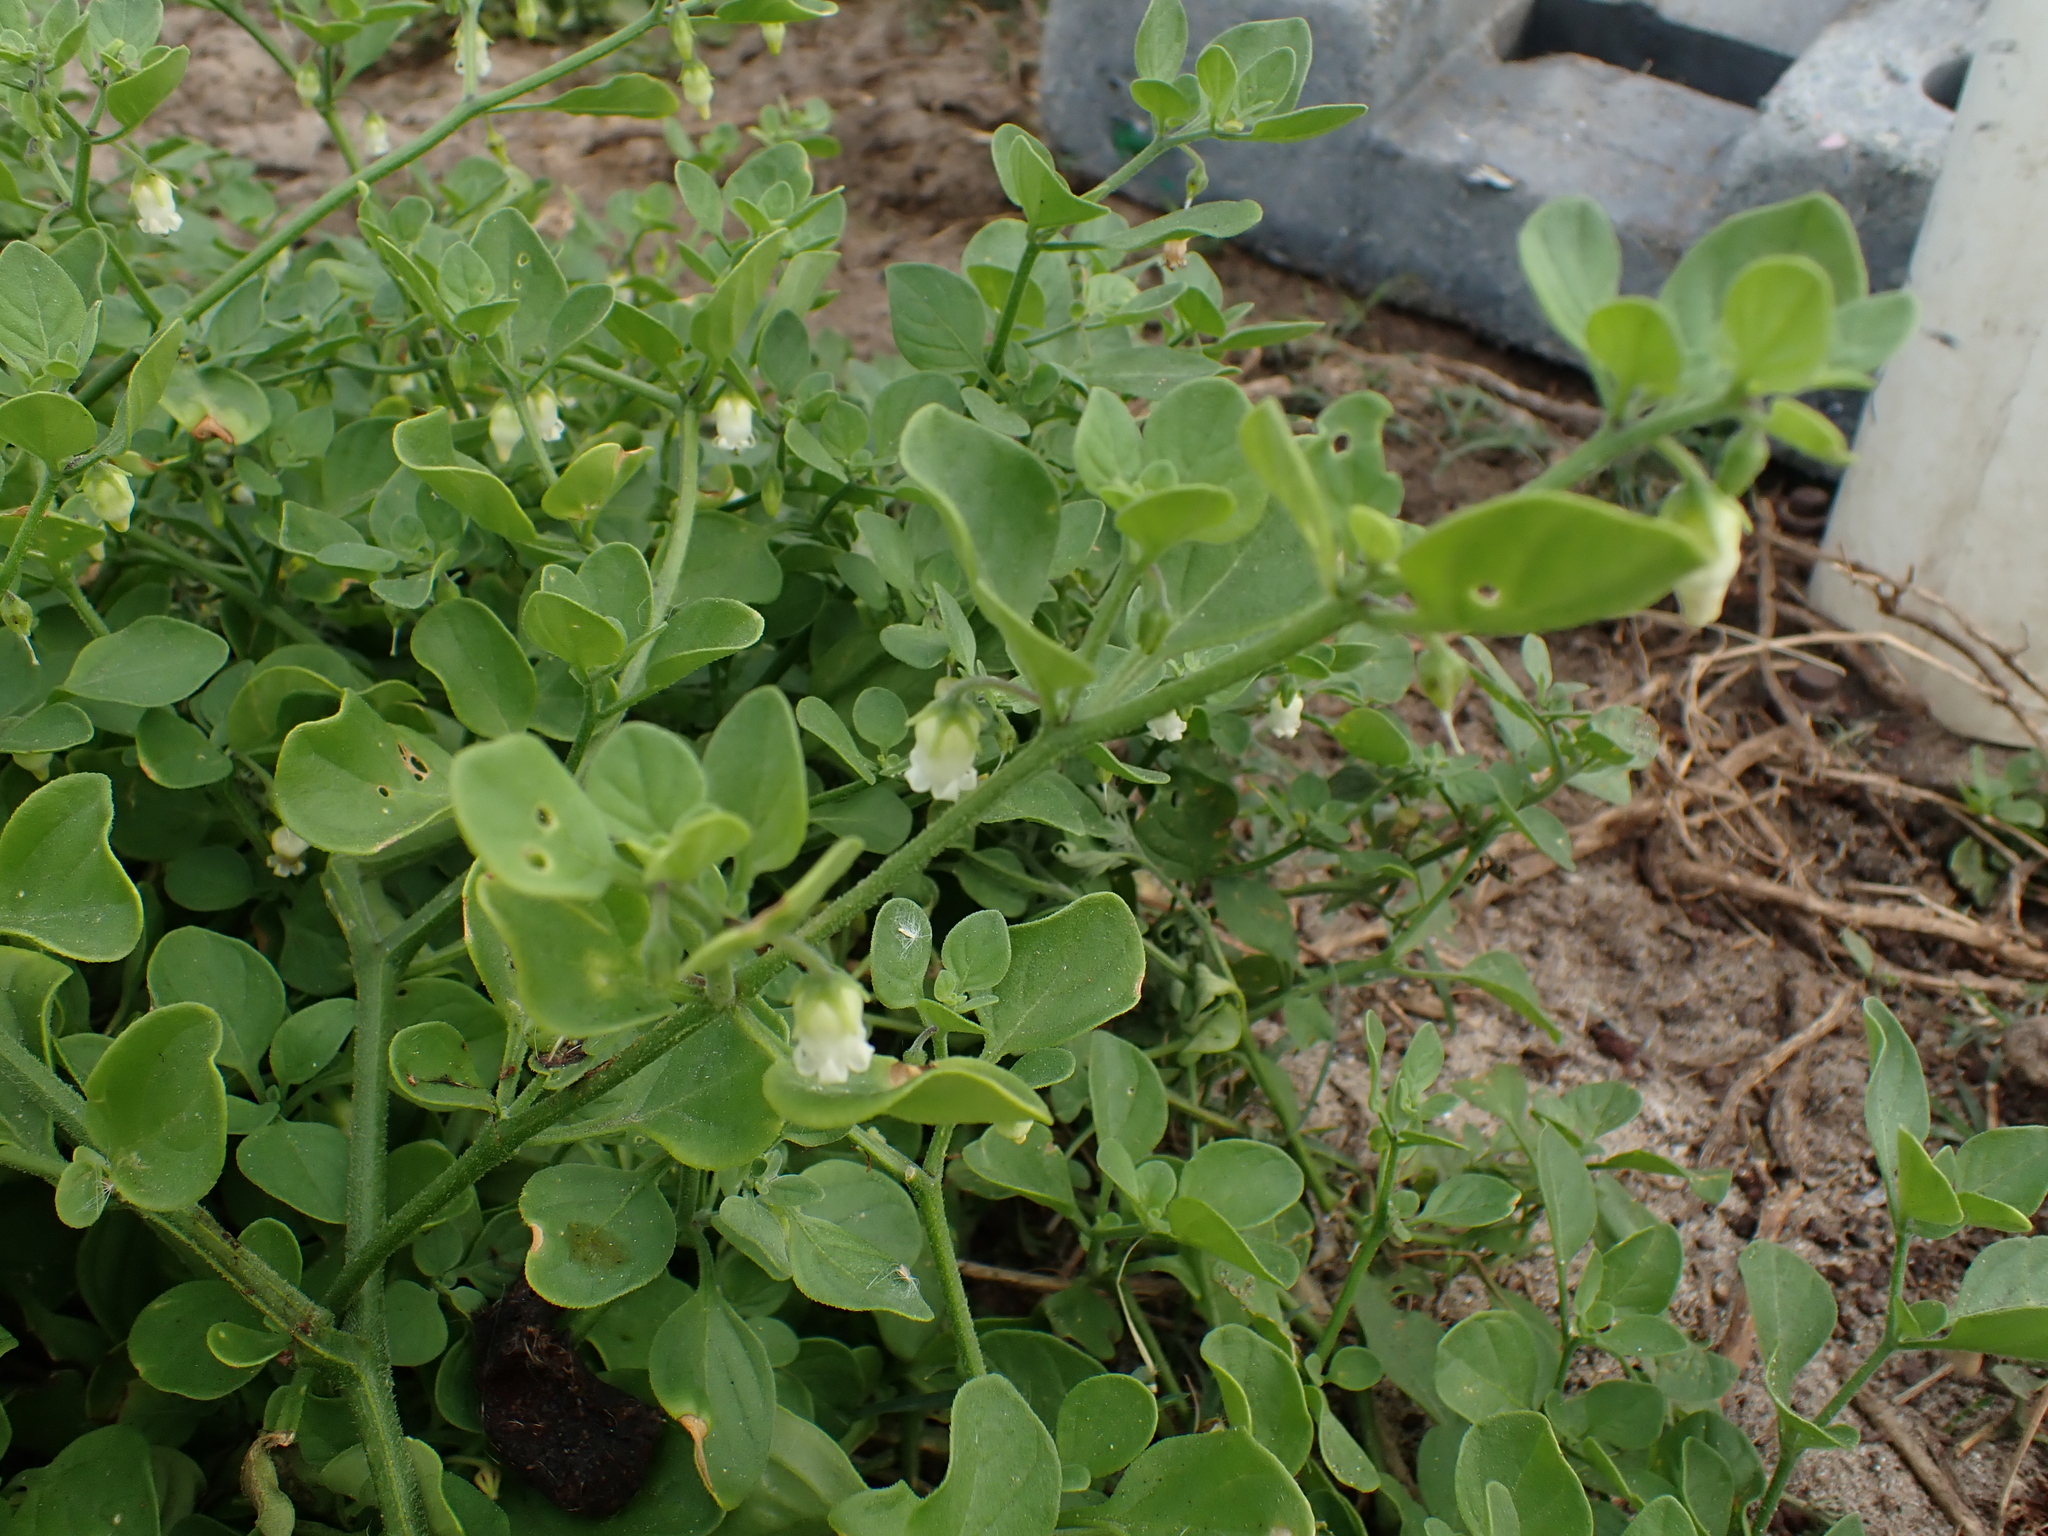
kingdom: Plantae
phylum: Tracheophyta
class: Magnoliopsida
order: Solanales
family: Solanaceae
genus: Salpichroa
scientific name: Salpichroa origanifolia
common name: Lily-of-the-valley-vine
